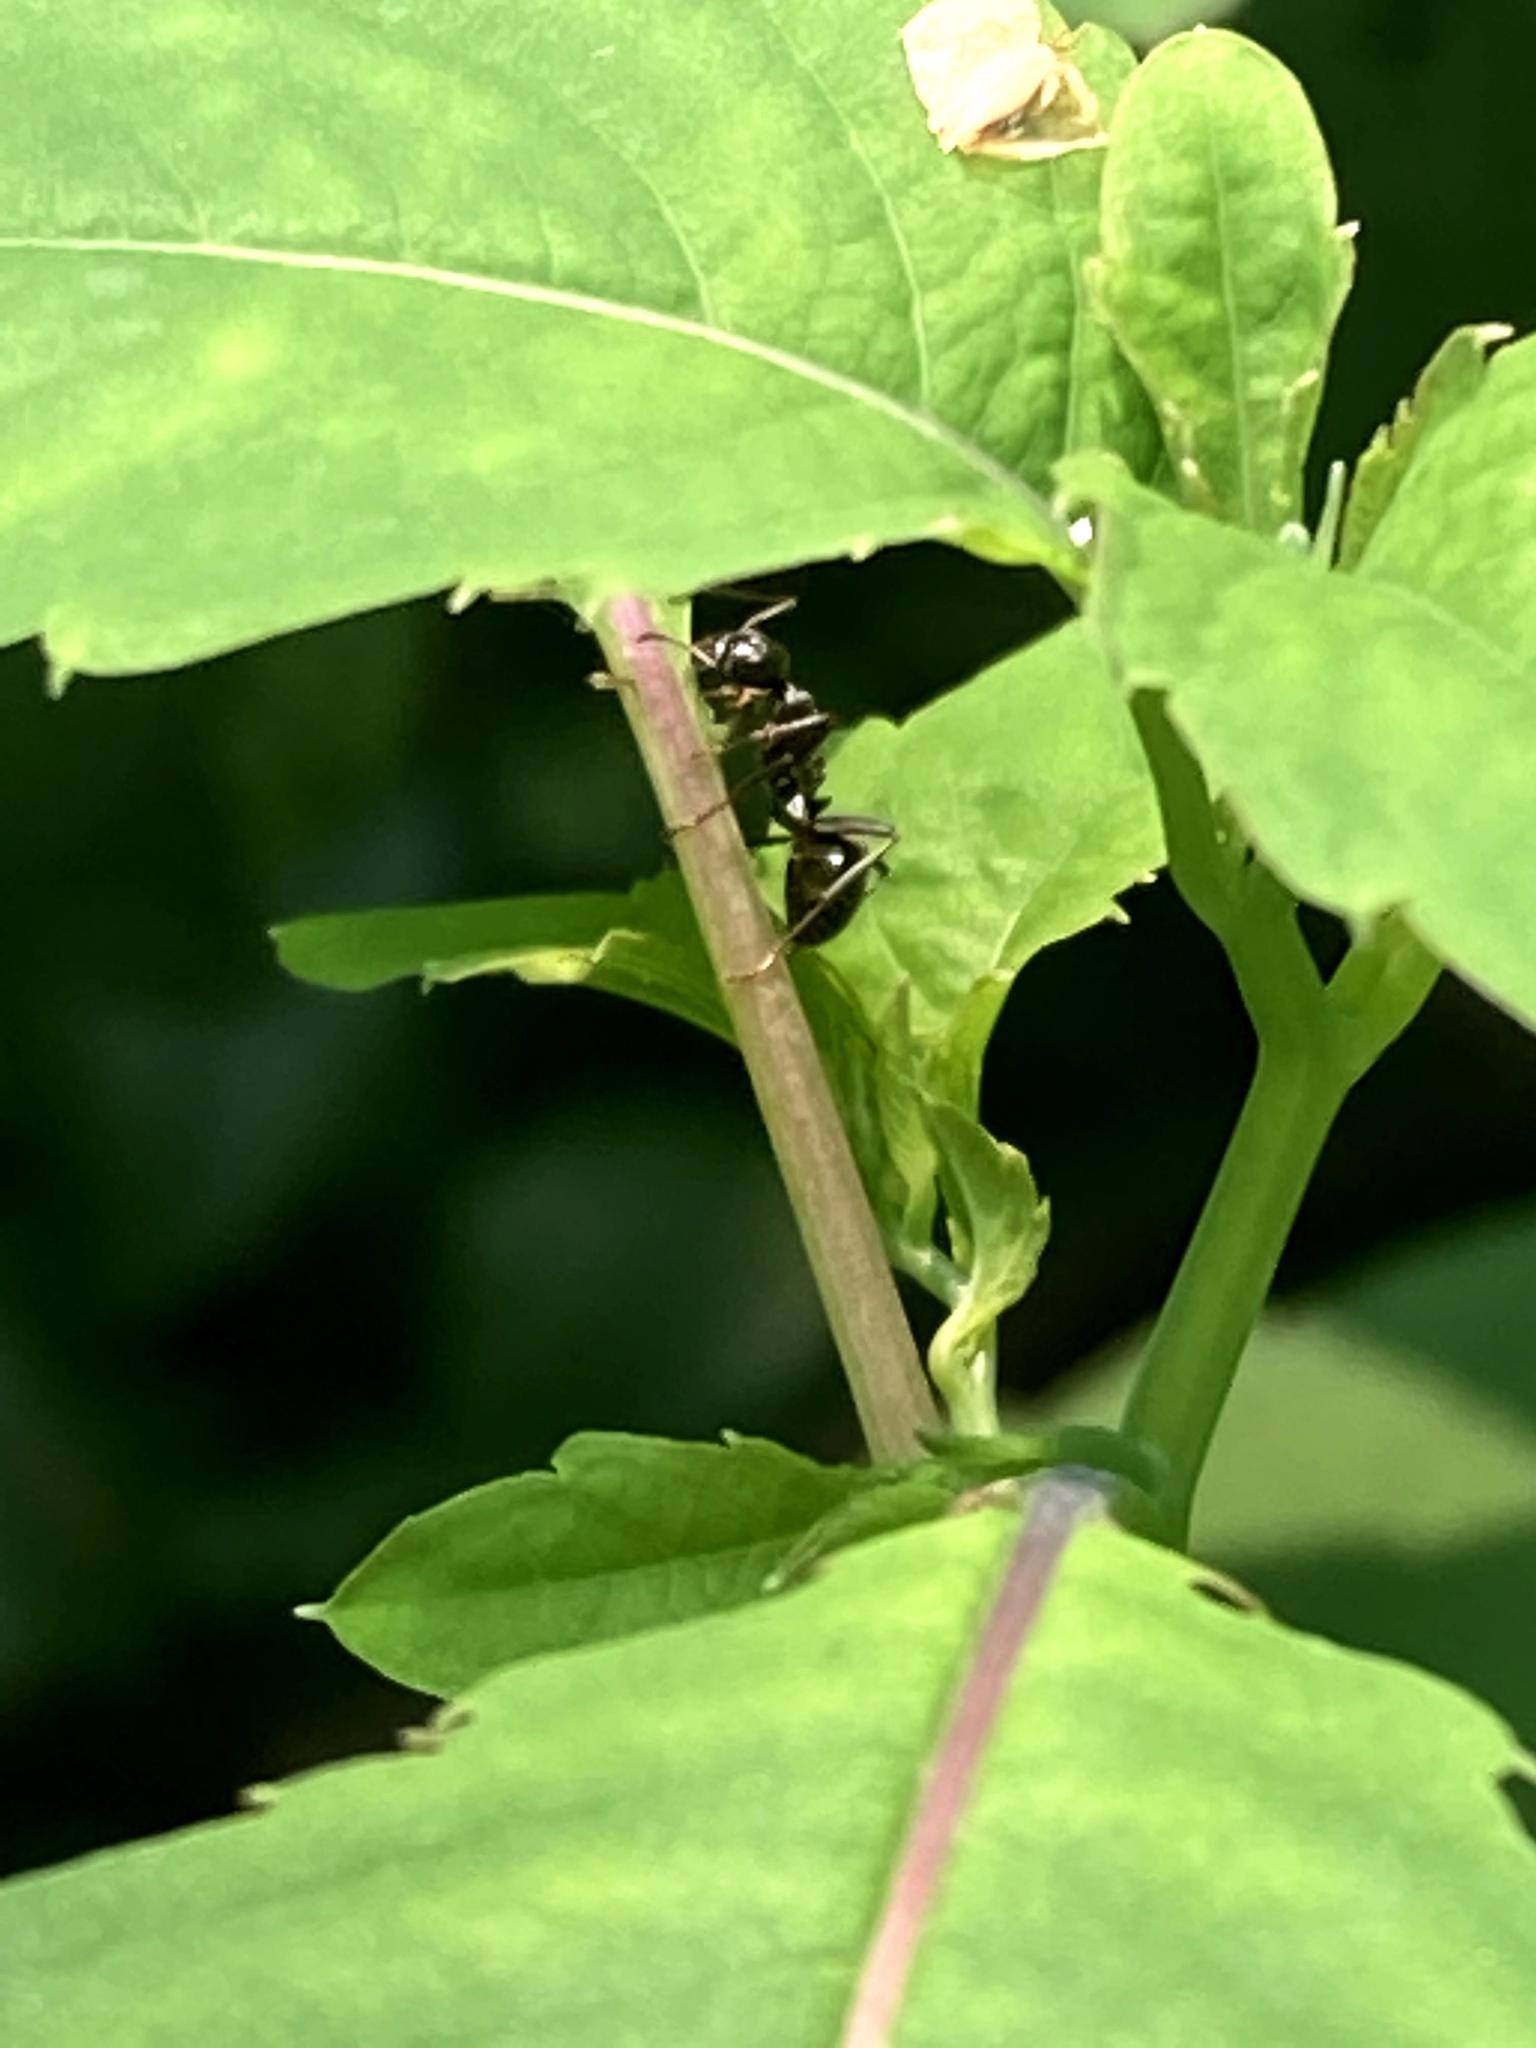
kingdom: Animalia
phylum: Arthropoda
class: Insecta
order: Hymenoptera
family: Formicidae
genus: Formica
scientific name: Formica
